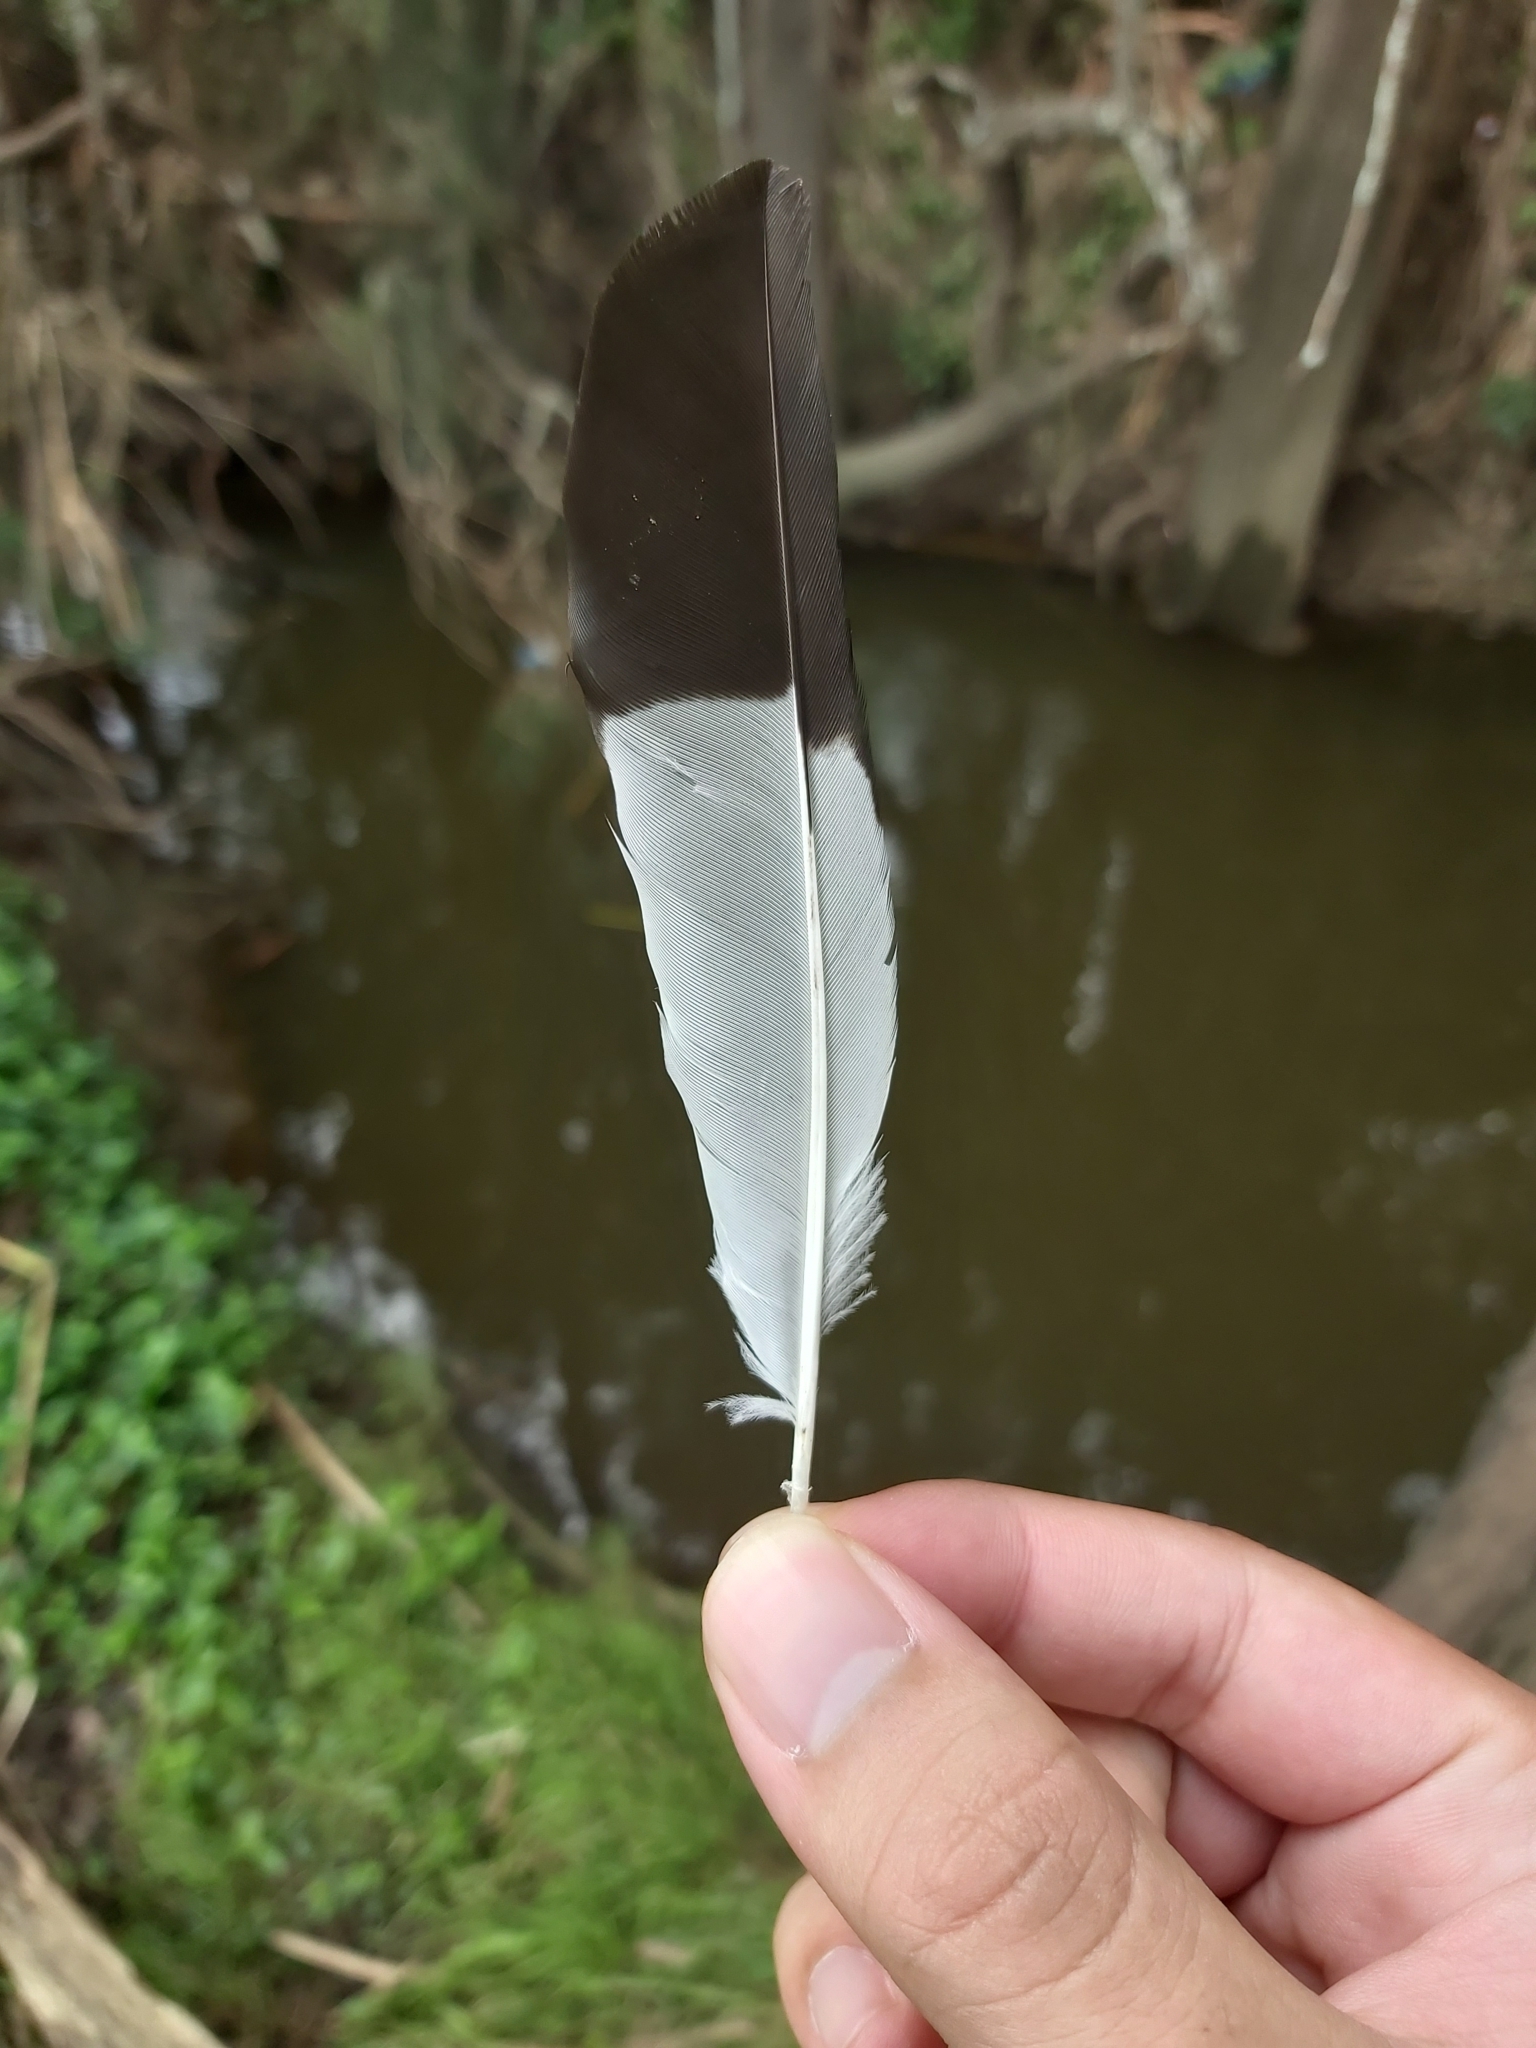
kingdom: Animalia
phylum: Chordata
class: Aves
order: Passeriformes
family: Sturnidae
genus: Acridotheres
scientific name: Acridotheres tristis
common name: Common myna
